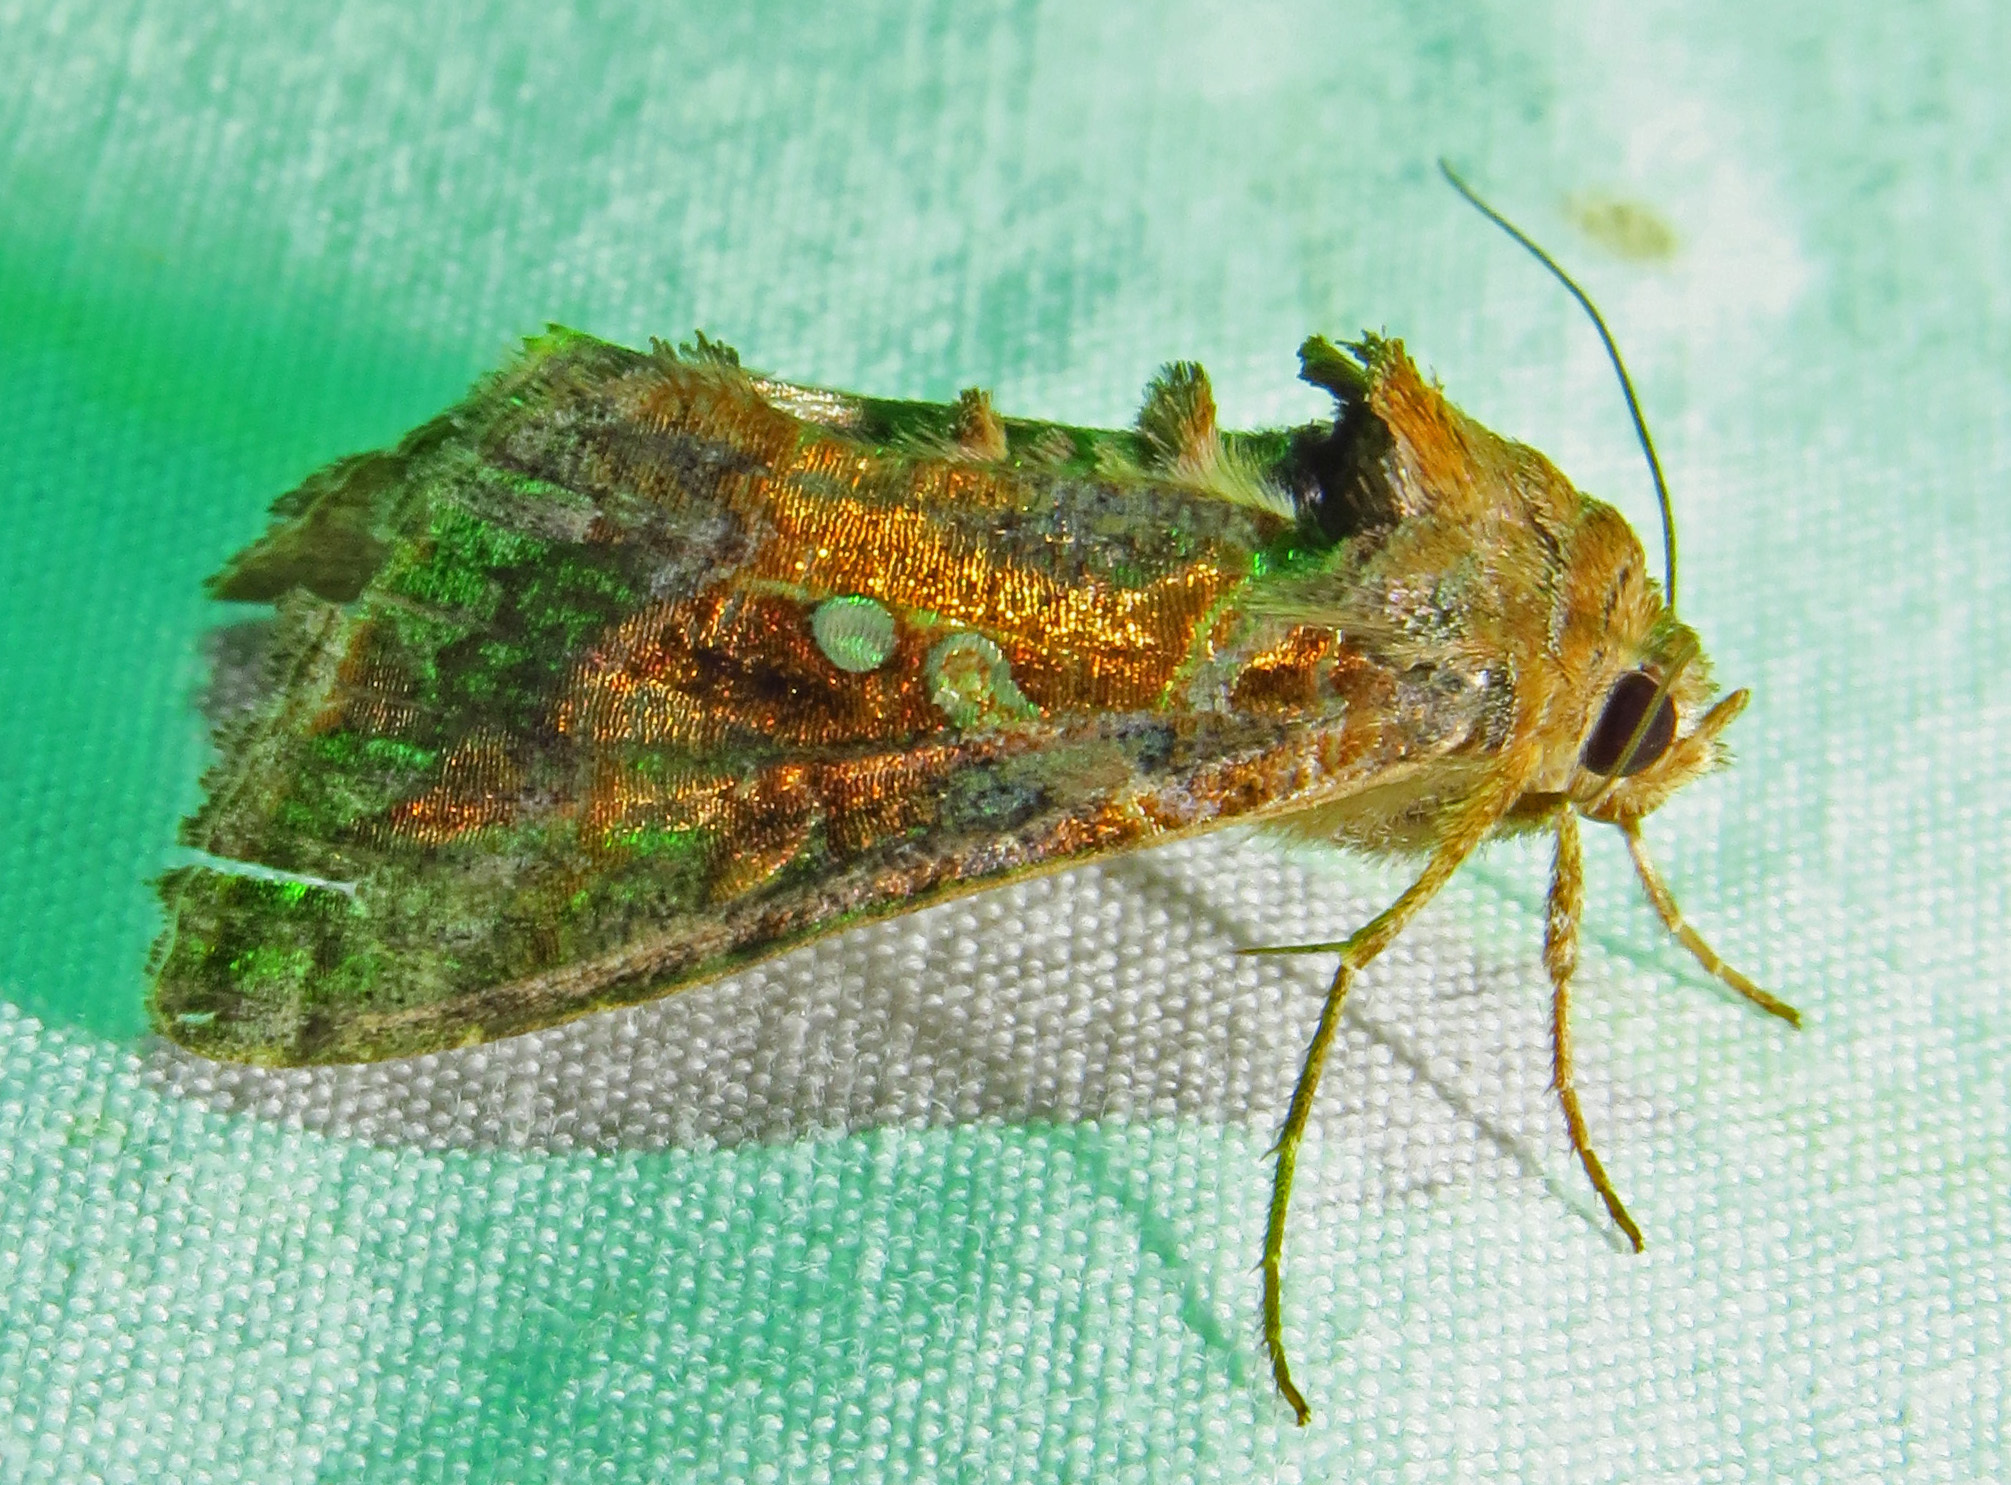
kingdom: Animalia
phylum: Arthropoda
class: Insecta
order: Lepidoptera
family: Noctuidae
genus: Chrysodeixis
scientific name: Chrysodeixis includens
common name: Cutworm moth
